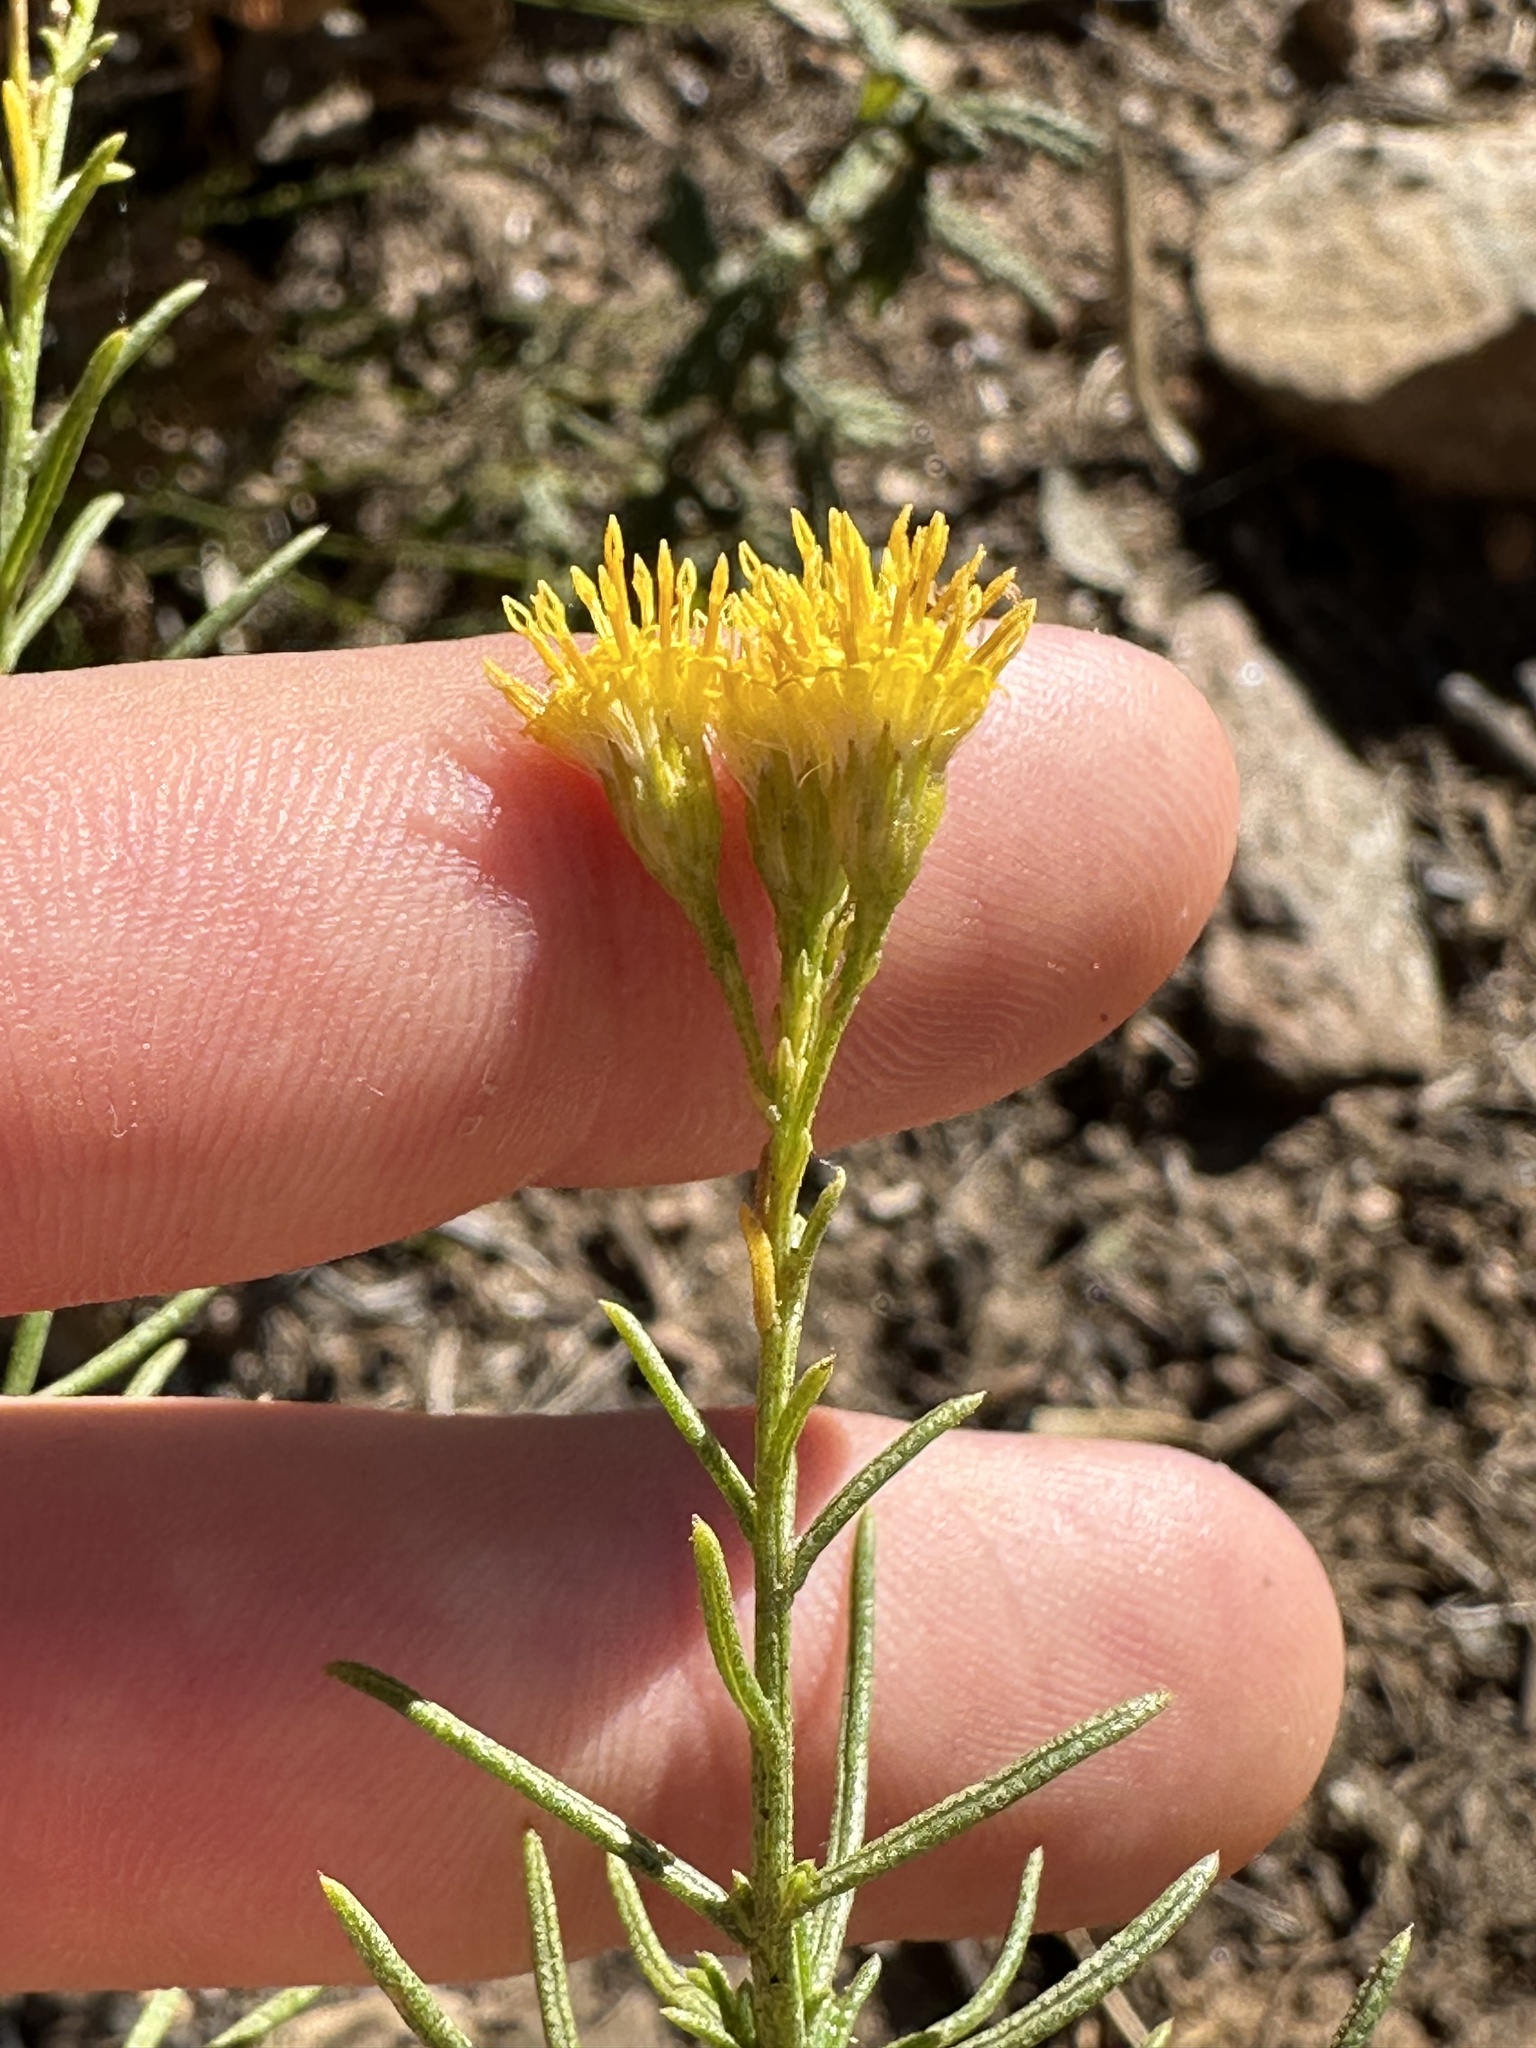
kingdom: Plantae
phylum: Tracheophyta
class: Magnoliopsida
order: Asterales
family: Asteraceae
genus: Ericameria
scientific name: Ericameria arborescens
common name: Goldenfleece
